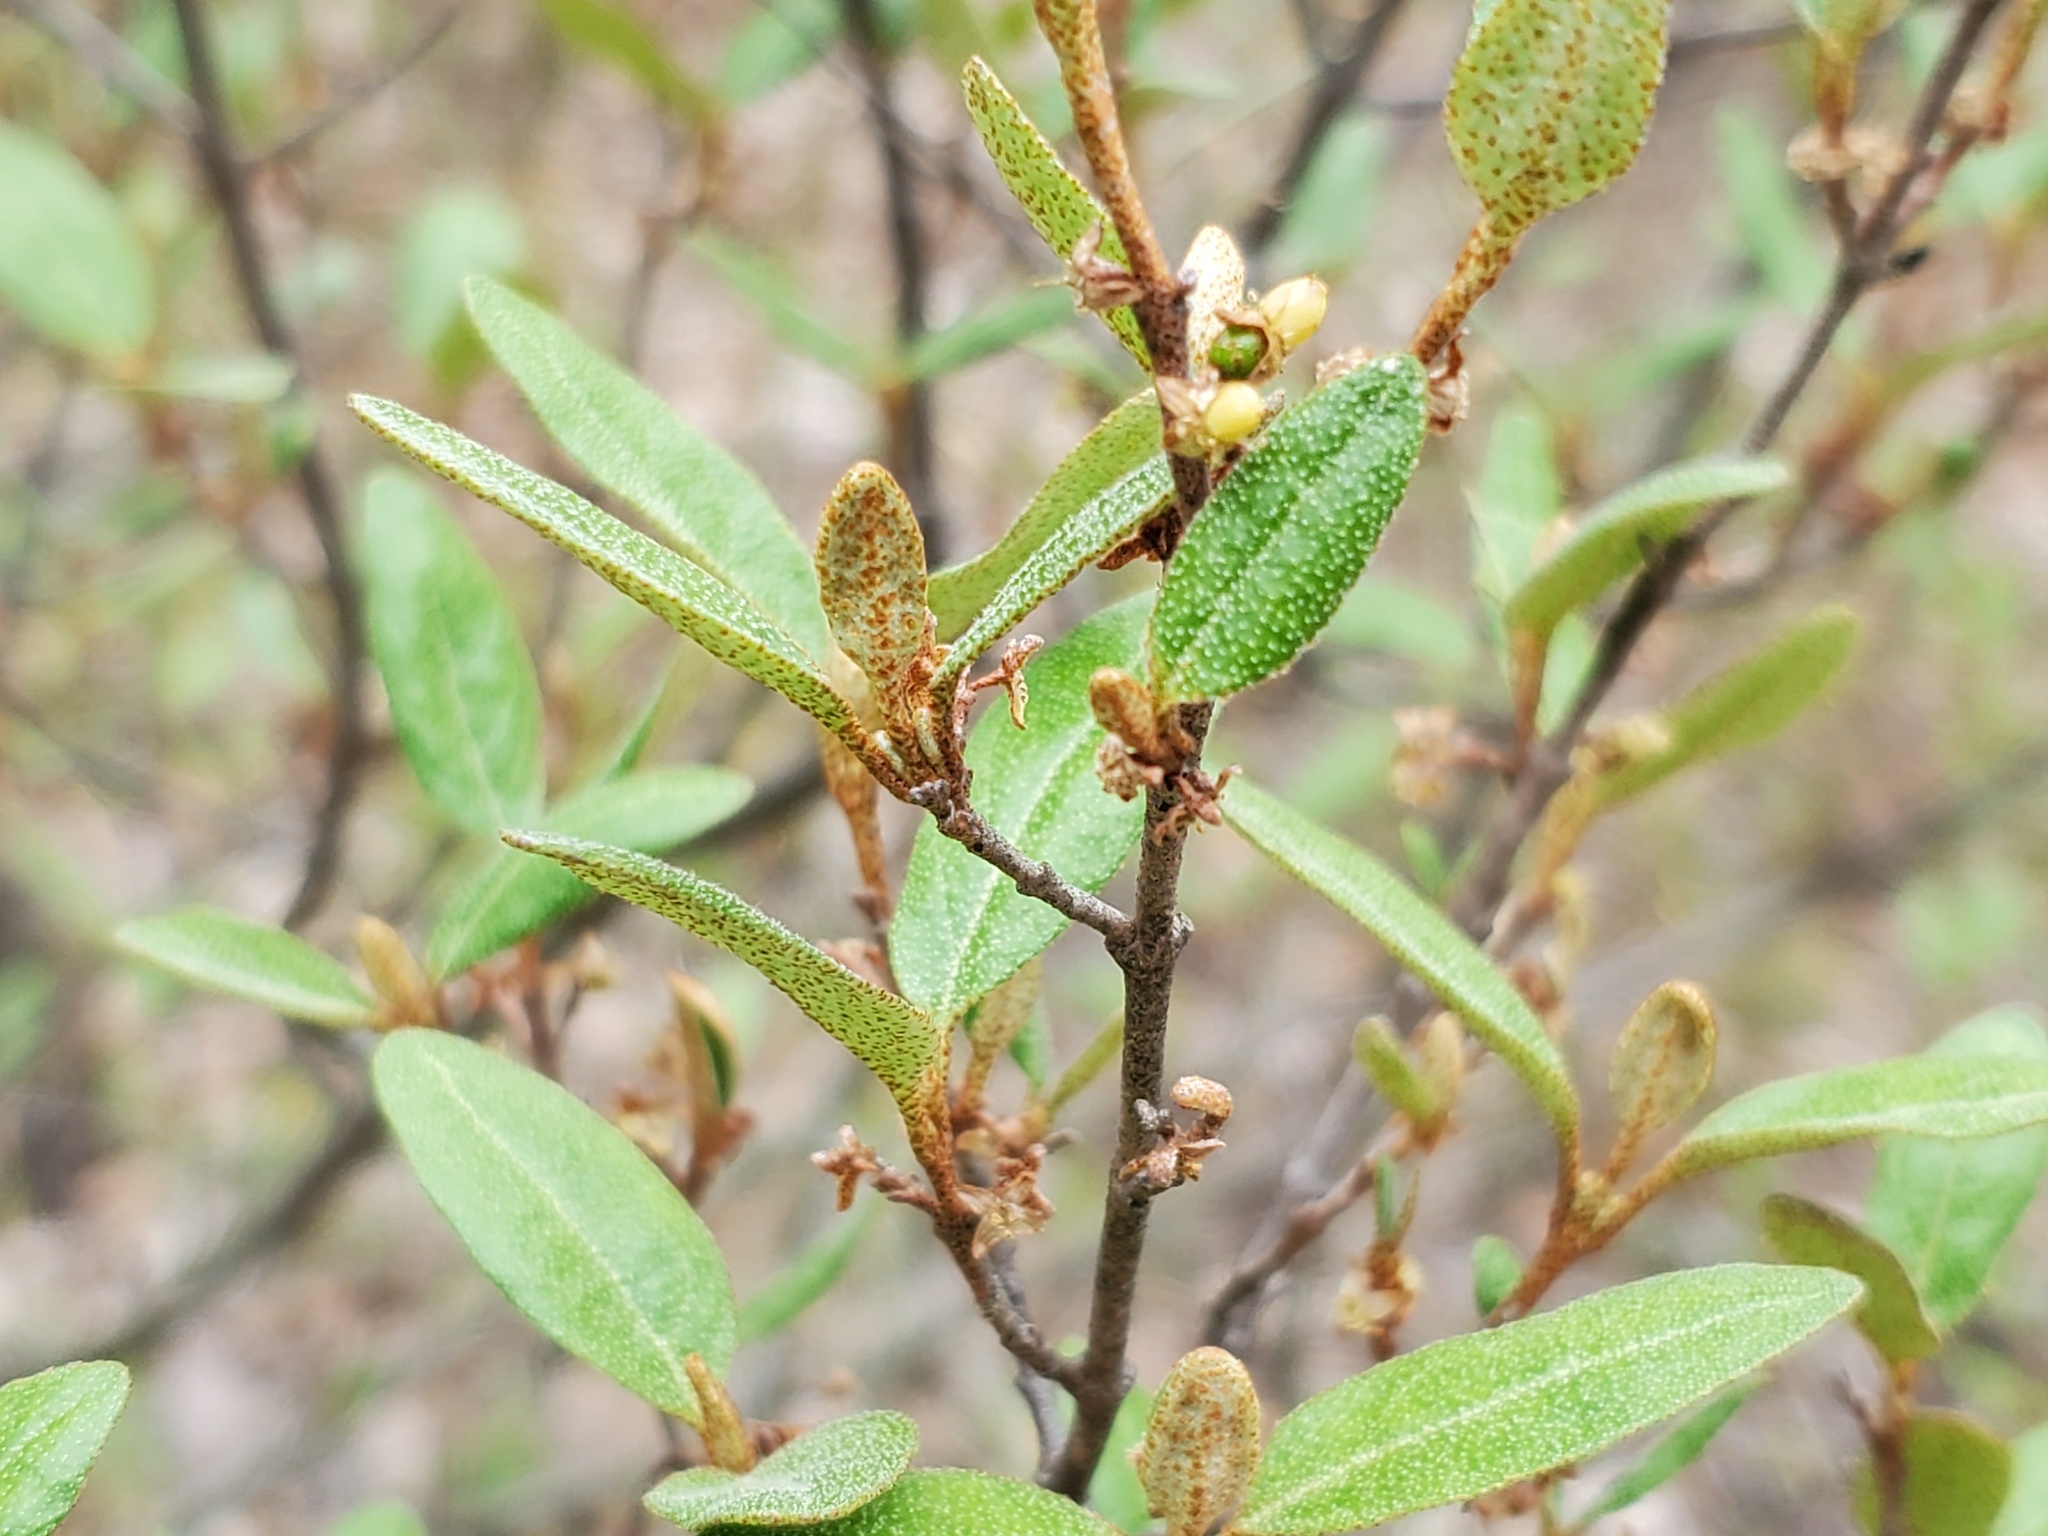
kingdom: Plantae
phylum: Tracheophyta
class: Magnoliopsida
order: Rosales
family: Elaeagnaceae
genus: Shepherdia
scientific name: Shepherdia canadensis
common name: Soapberry
